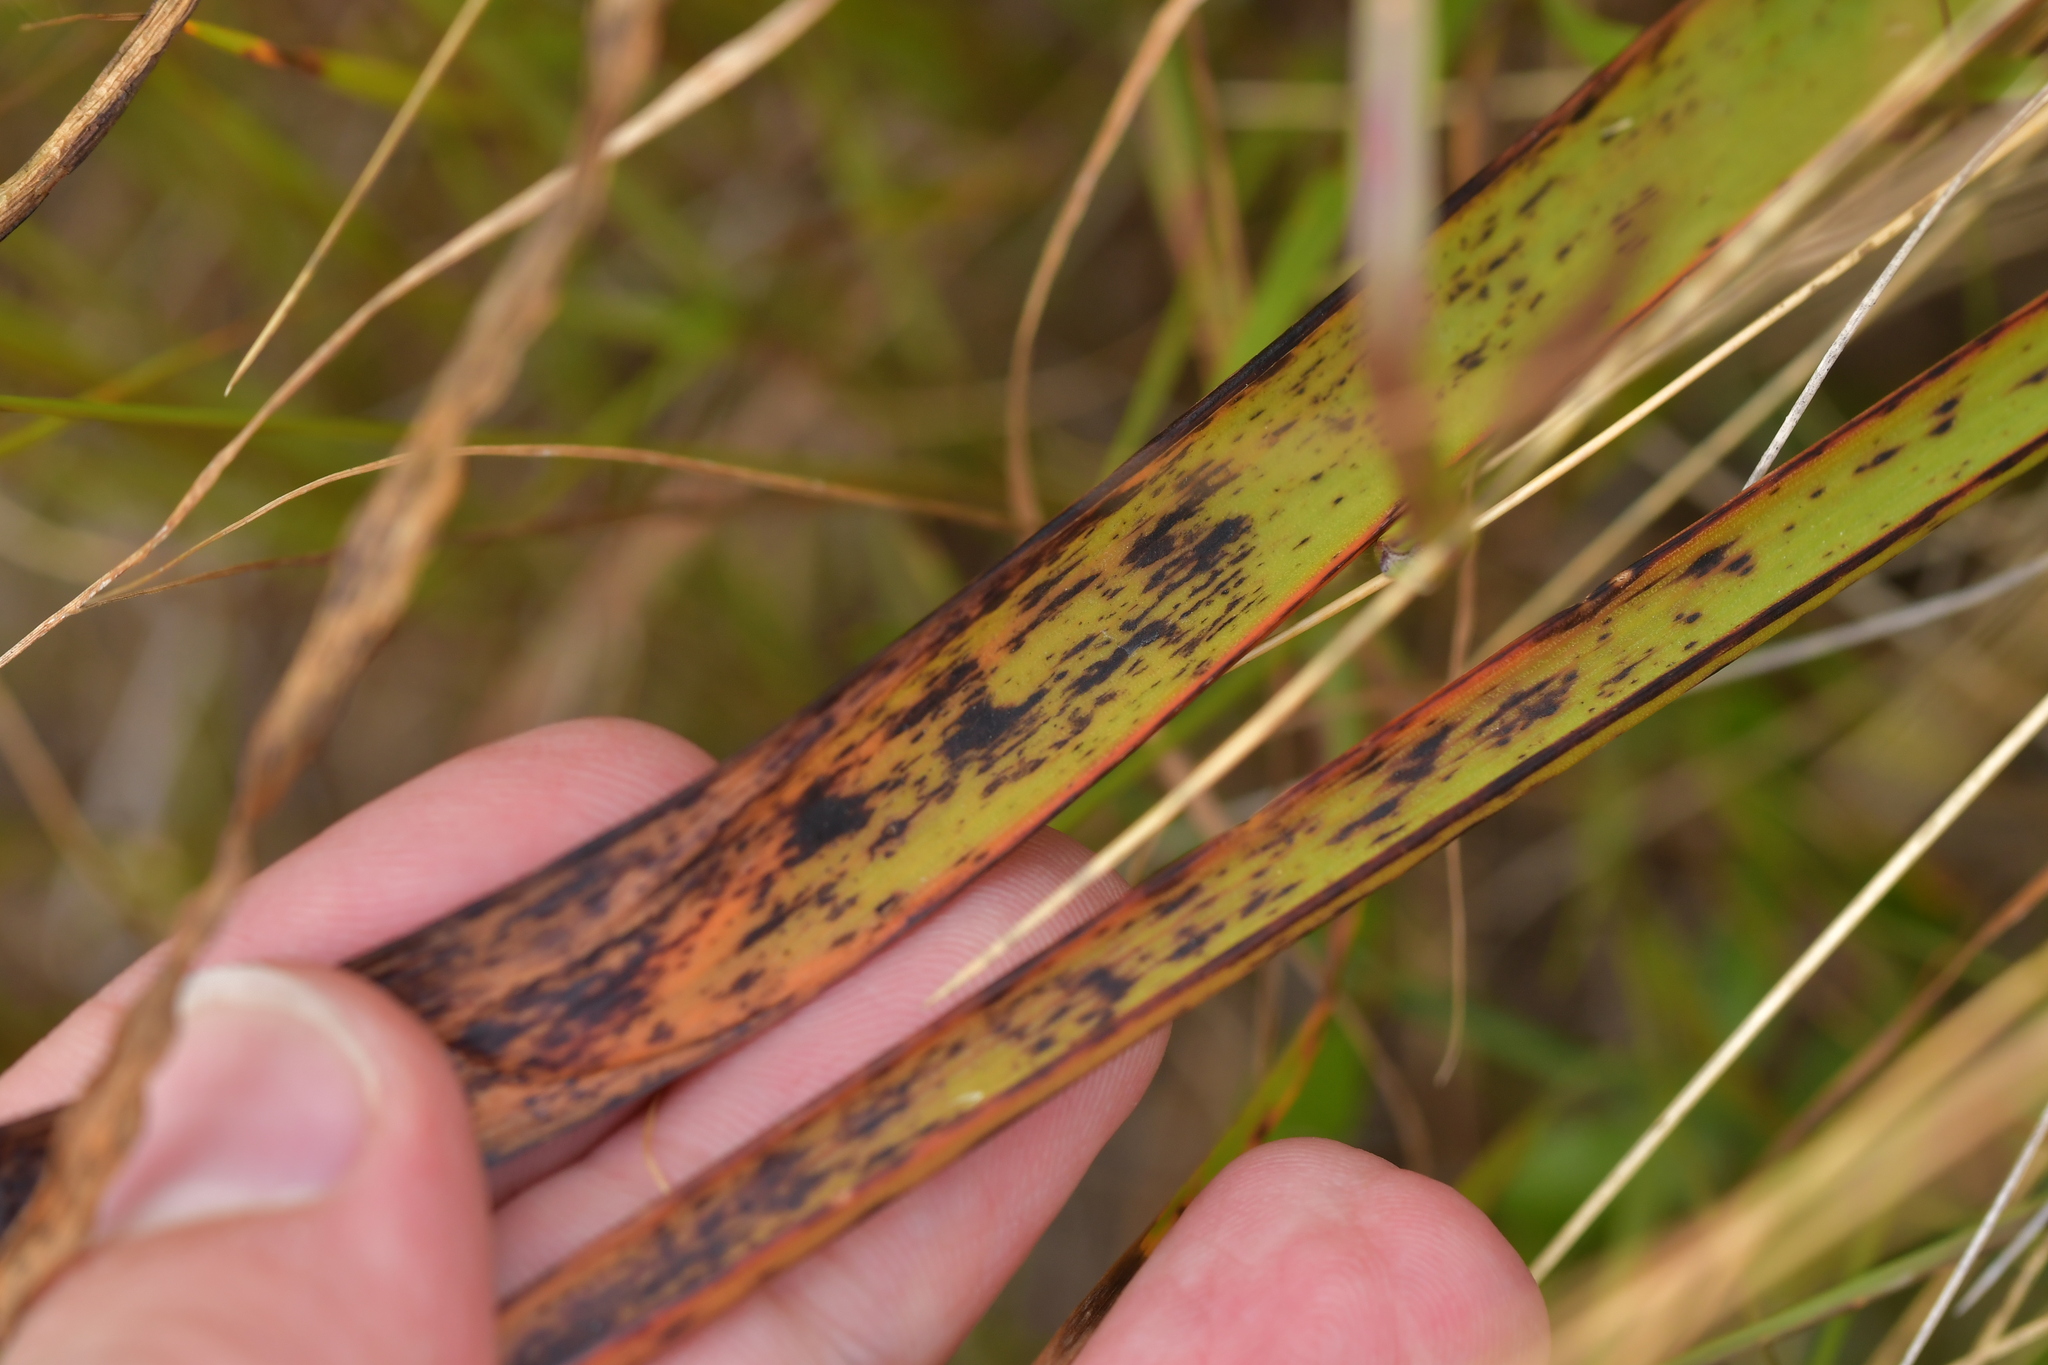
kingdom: Plantae
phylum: Tracheophyta
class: Liliopsida
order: Asparagales
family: Asphodelaceae
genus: Bulbinella
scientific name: Bulbinella angustifolia
